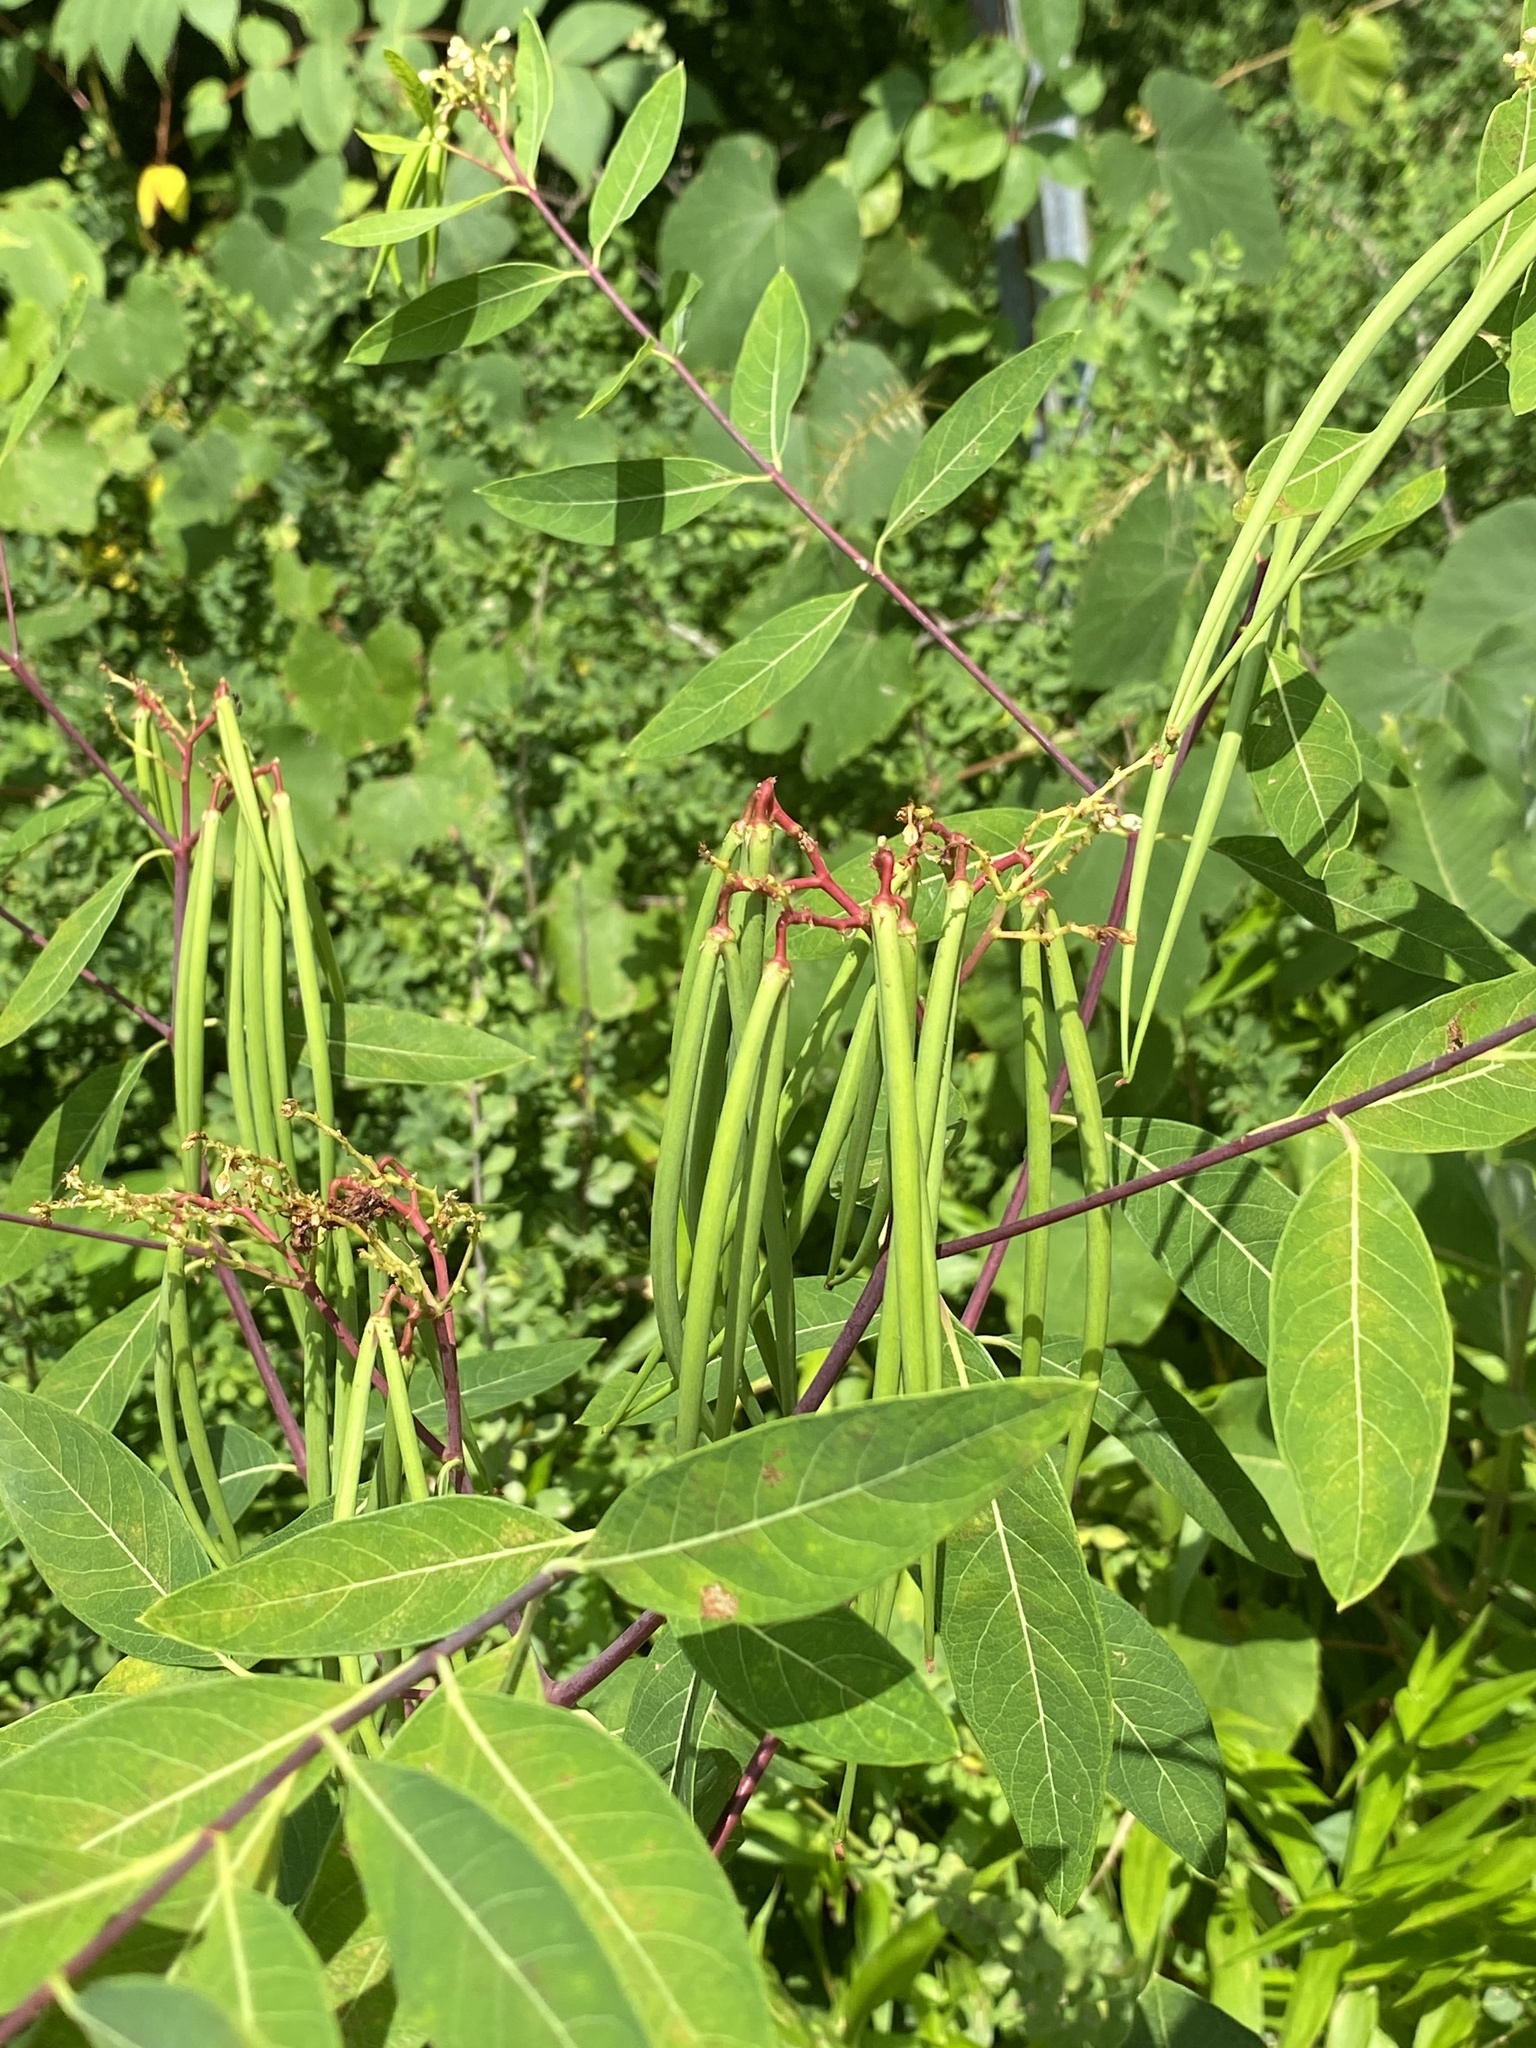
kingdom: Plantae
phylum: Tracheophyta
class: Magnoliopsida
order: Gentianales
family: Apocynaceae
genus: Apocynum
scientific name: Apocynum cannabinum
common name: Hemp dogbane
